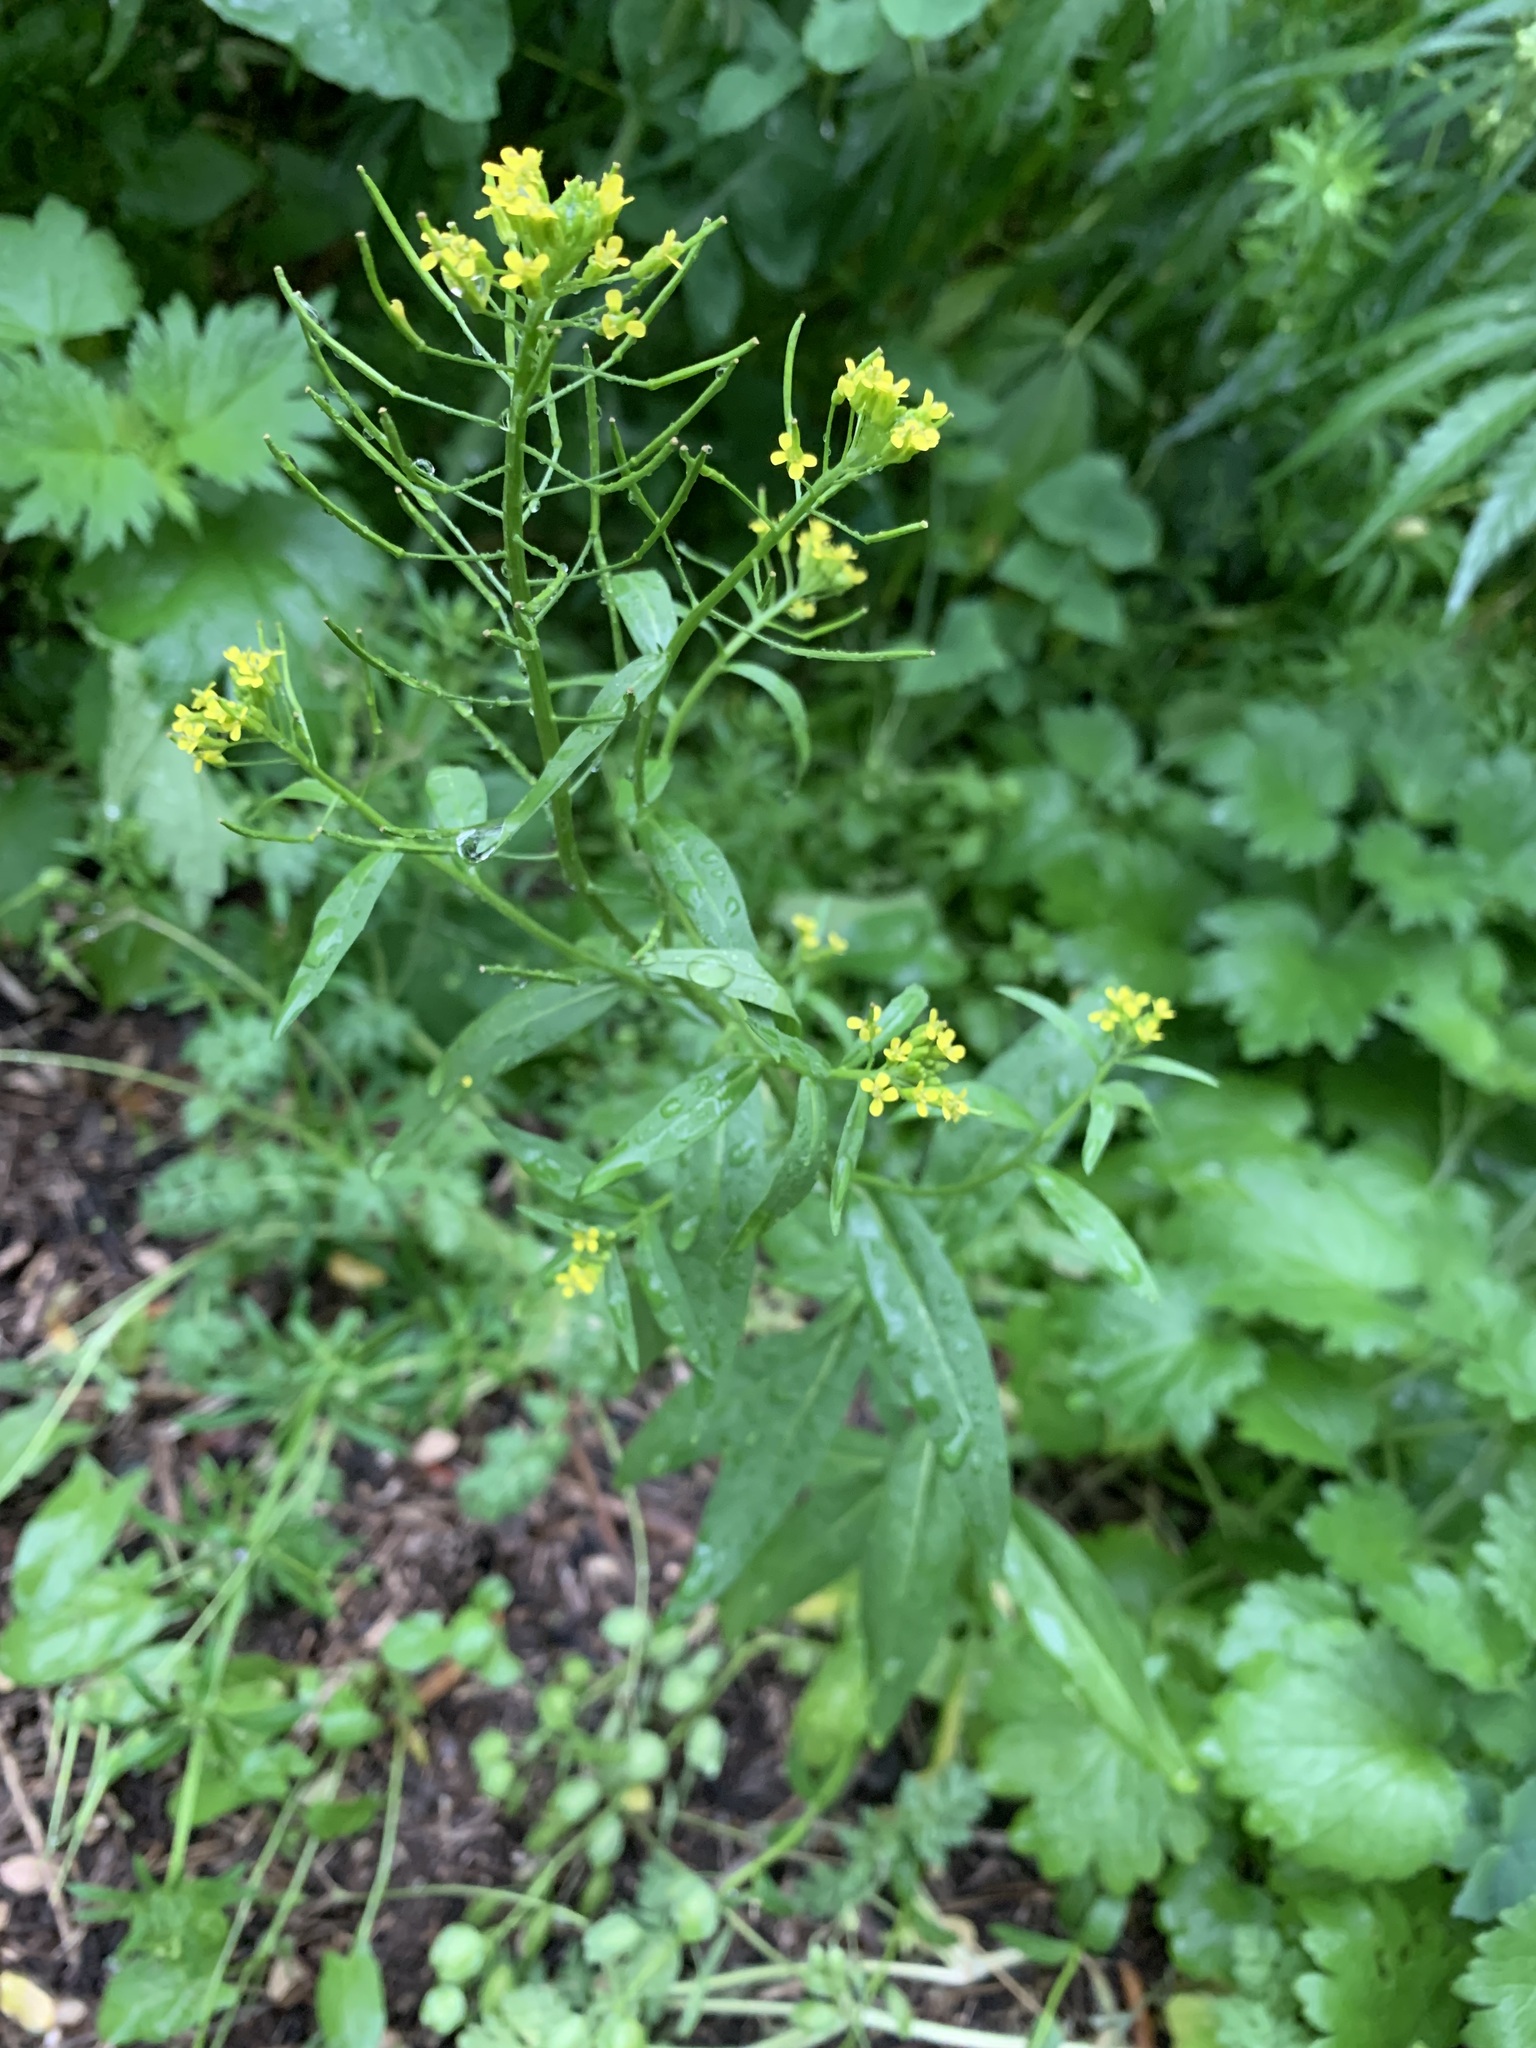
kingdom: Plantae
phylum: Tracheophyta
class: Magnoliopsida
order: Brassicales
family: Brassicaceae
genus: Erysimum
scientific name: Erysimum cheiranthoides
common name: Treacle mustard
